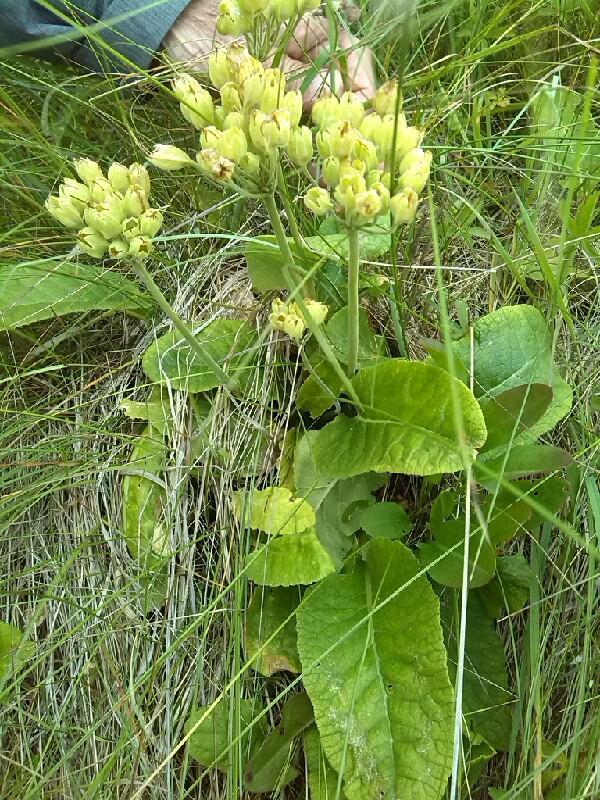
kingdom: Plantae
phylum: Tracheophyta
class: Magnoliopsida
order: Ericales
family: Primulaceae
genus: Primula
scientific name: Primula veris
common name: Cowslip
